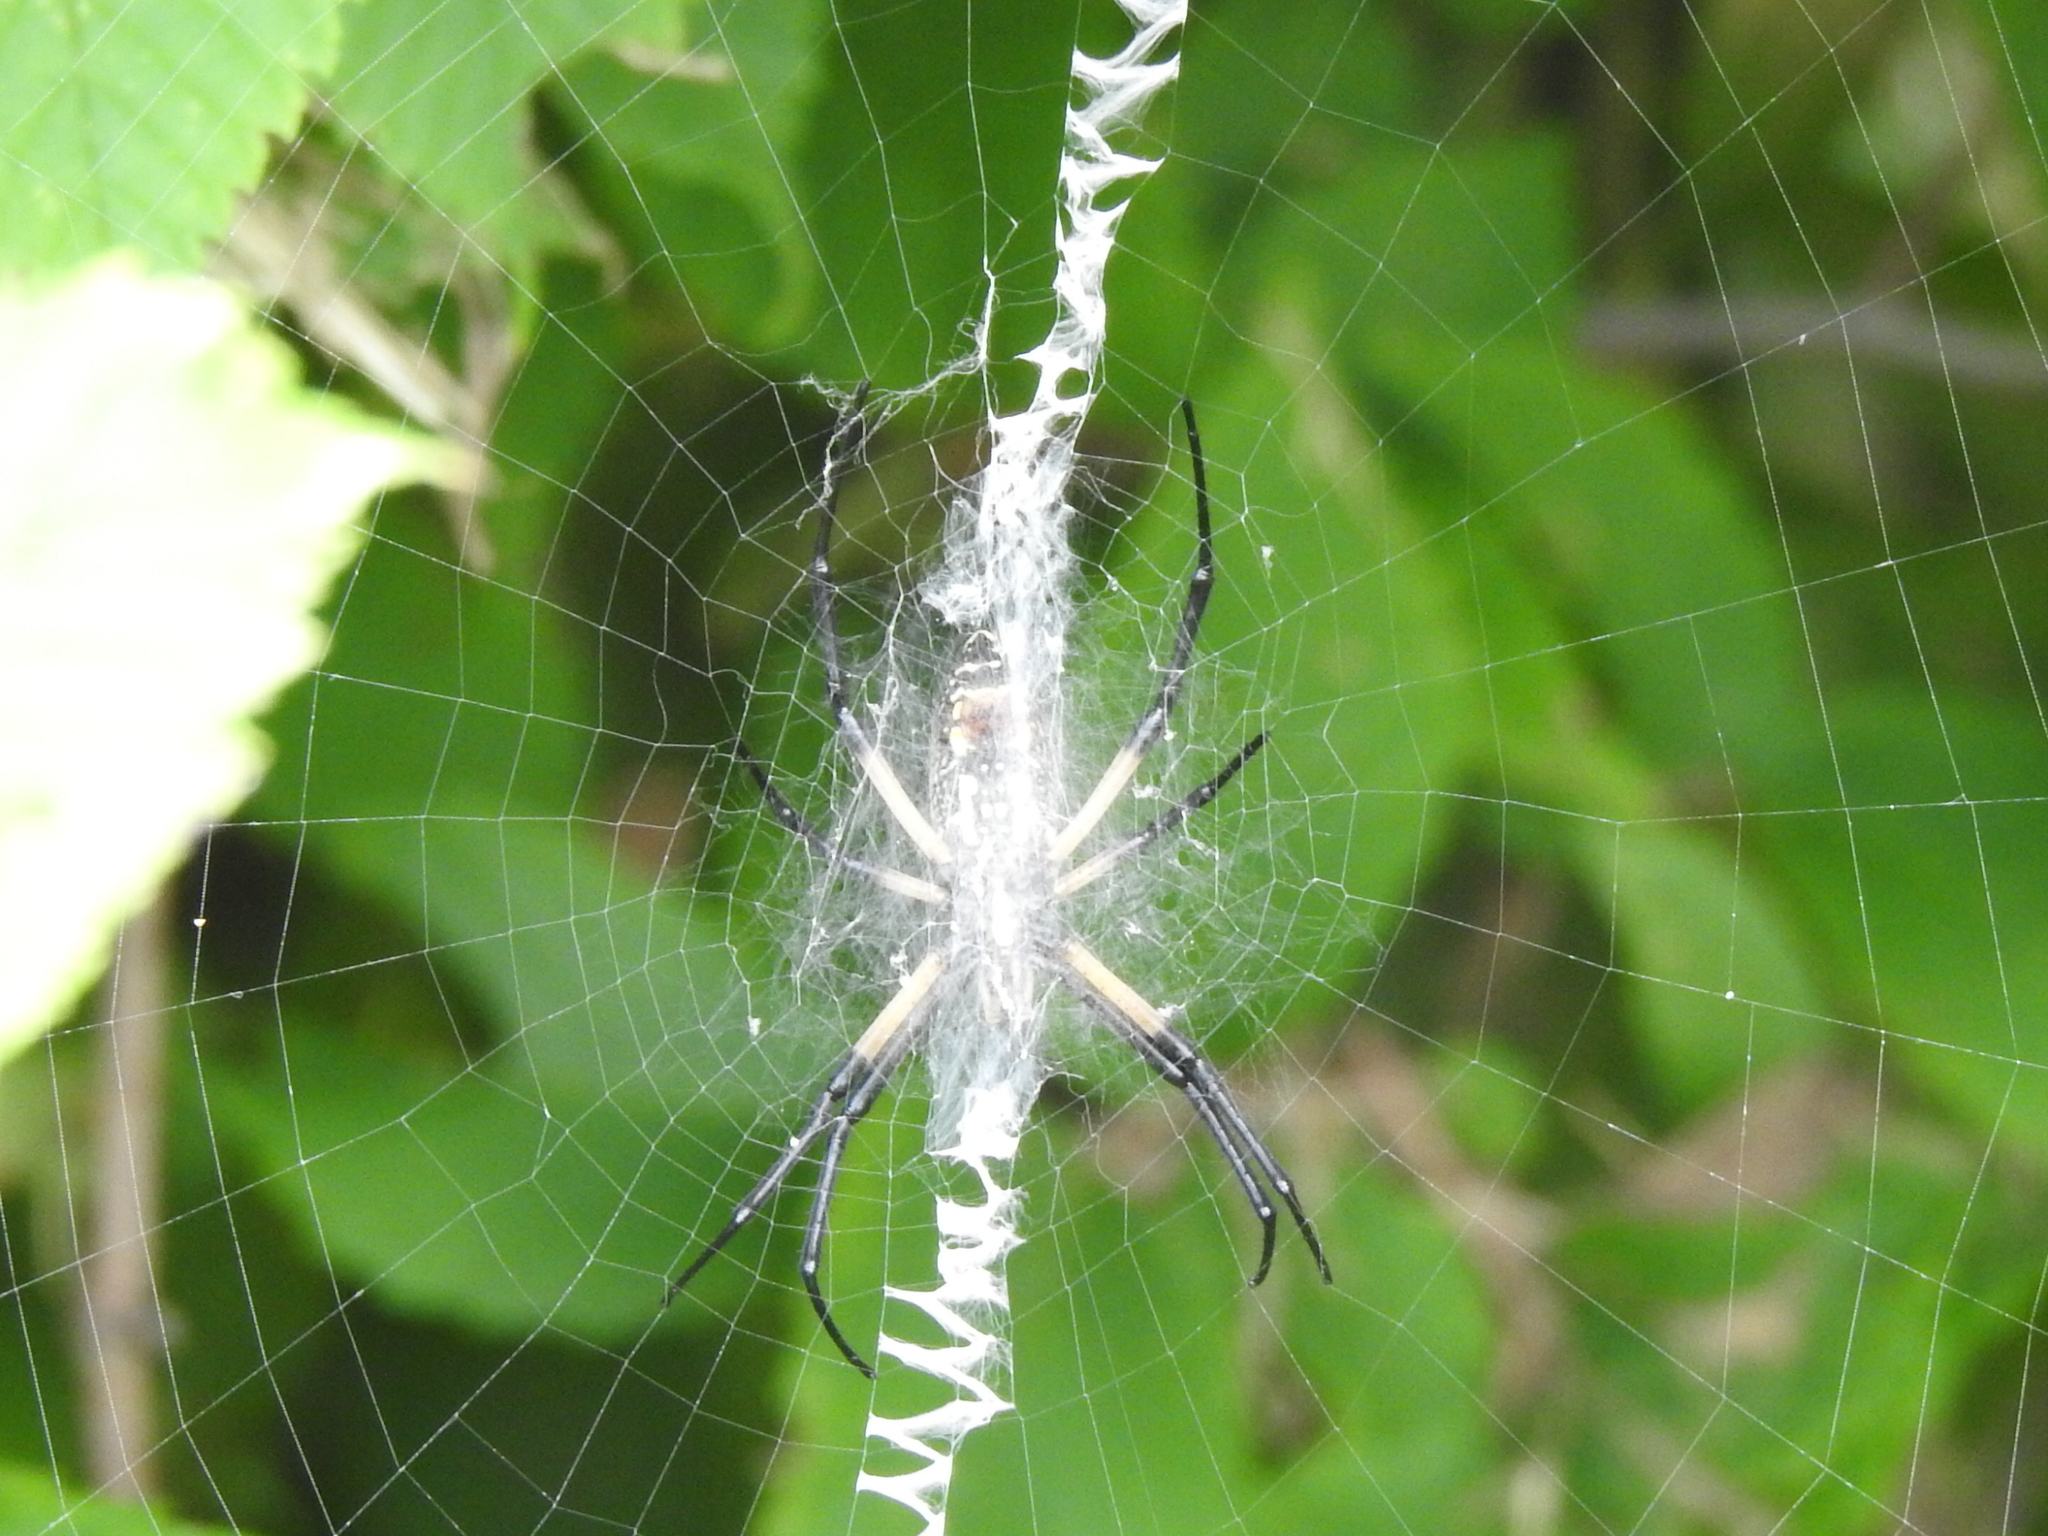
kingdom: Animalia
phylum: Arthropoda
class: Arachnida
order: Araneae
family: Araneidae
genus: Argiope
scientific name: Argiope aurantia
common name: Orb weavers
